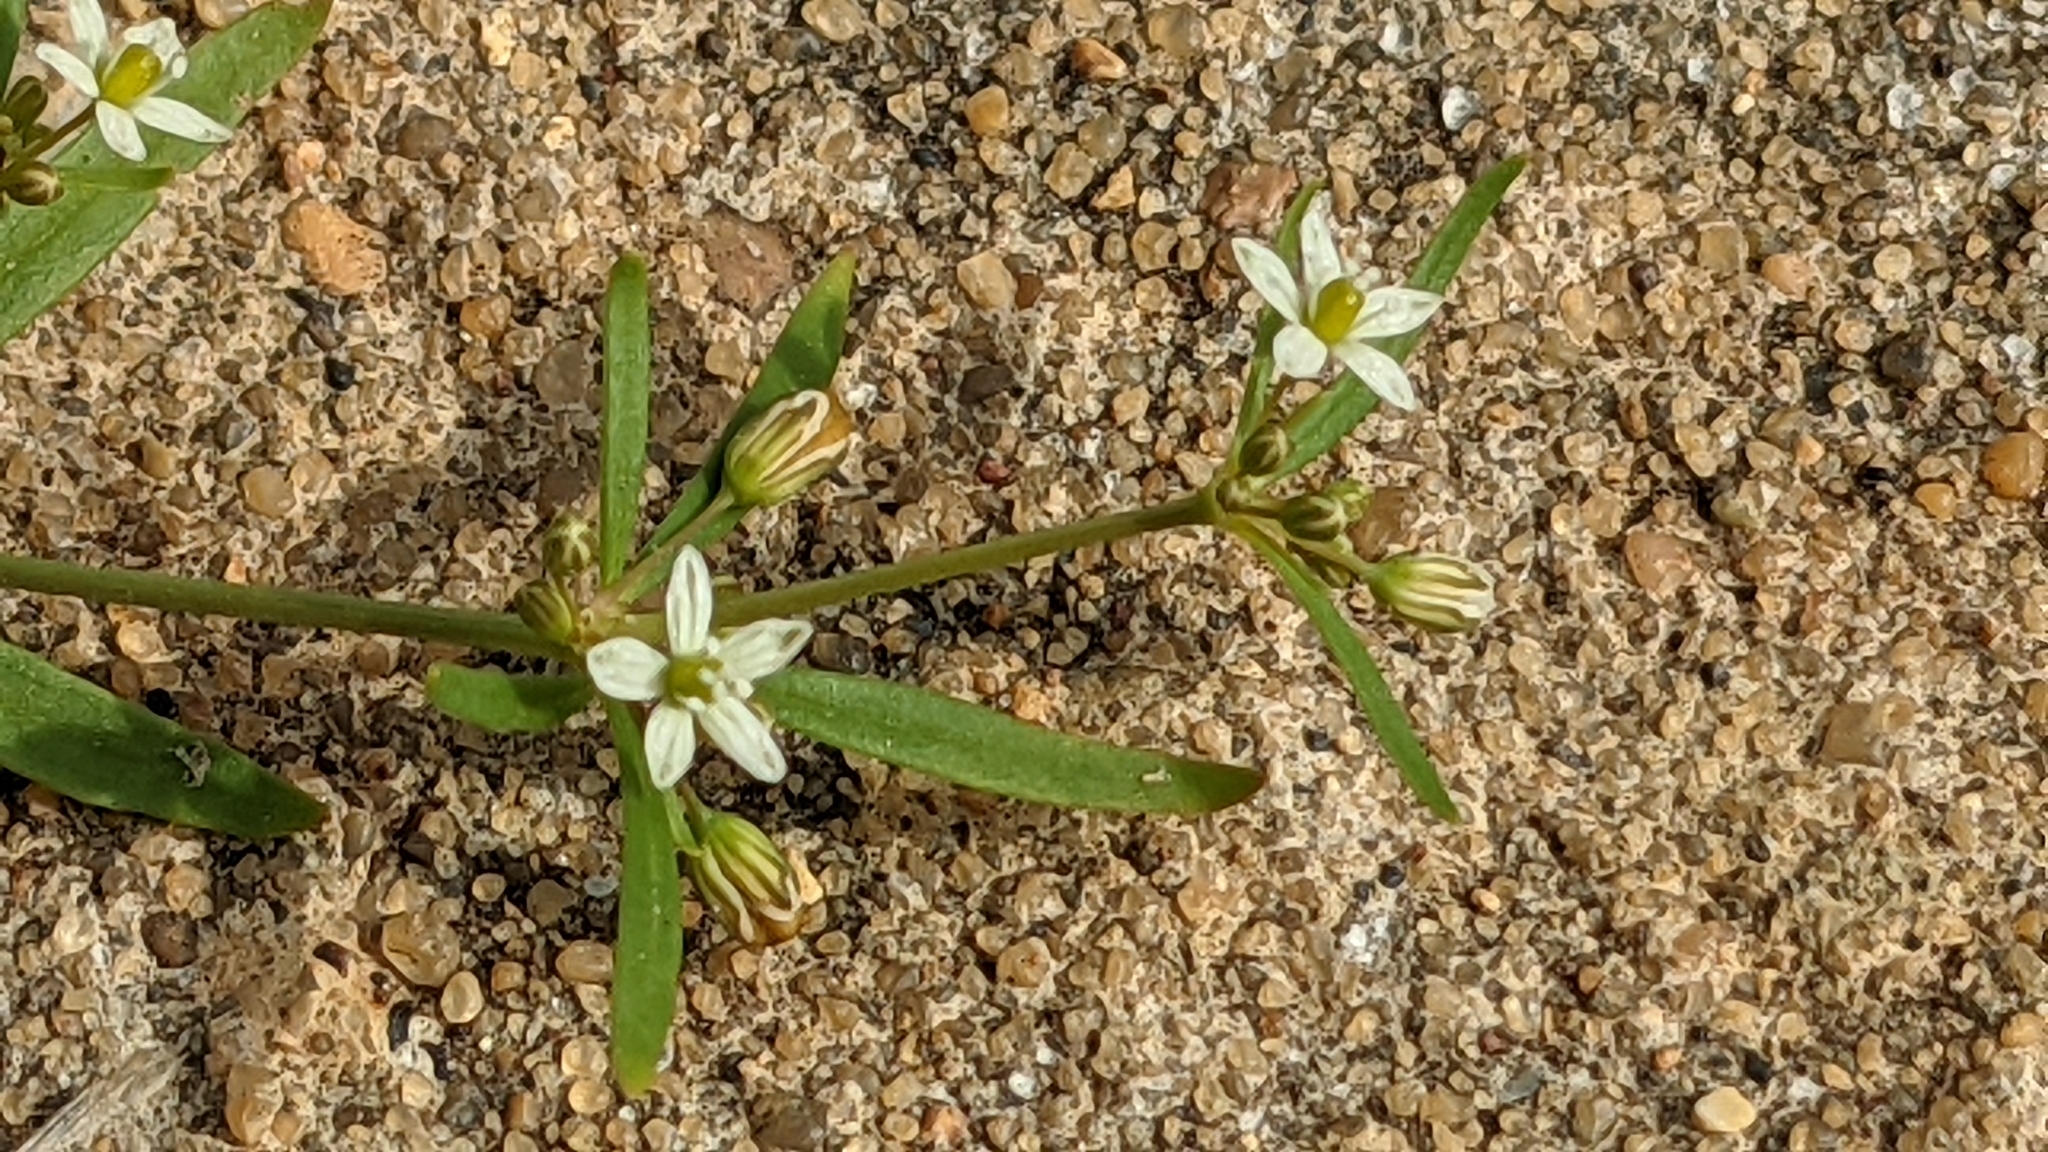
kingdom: Plantae
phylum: Tracheophyta
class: Magnoliopsida
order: Caryophyllales
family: Molluginaceae
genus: Mollugo
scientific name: Mollugo verticillata
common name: Green carpetweed
